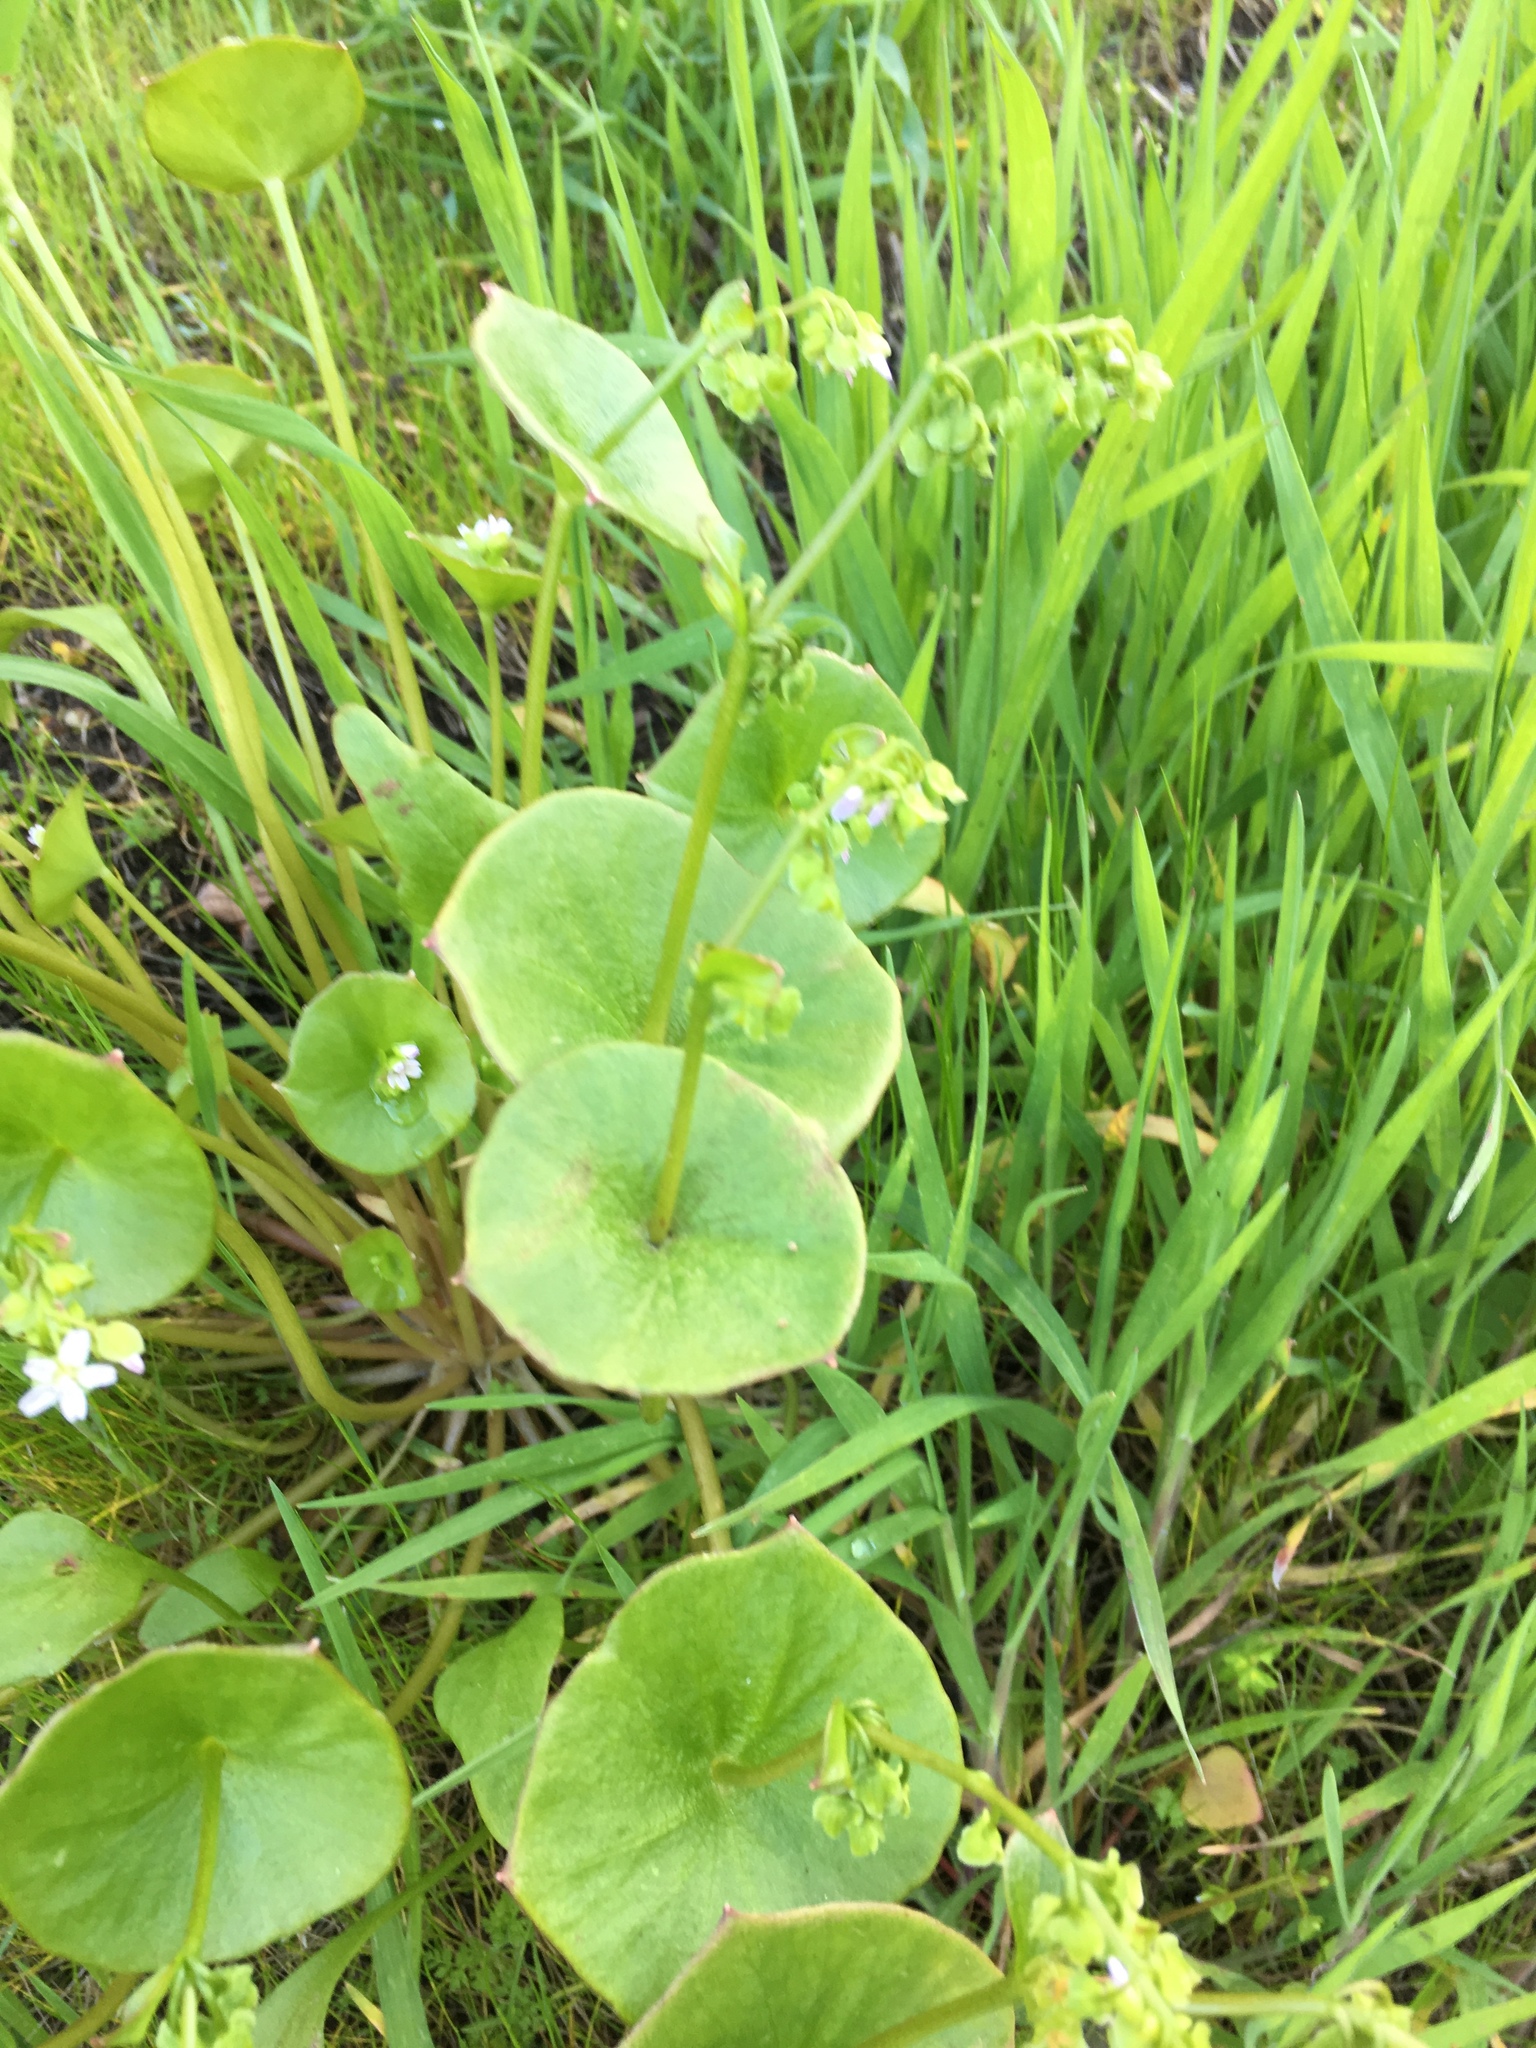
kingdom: Plantae
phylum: Tracheophyta
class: Magnoliopsida
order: Caryophyllales
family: Montiaceae
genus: Claytonia
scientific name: Claytonia perfoliata
